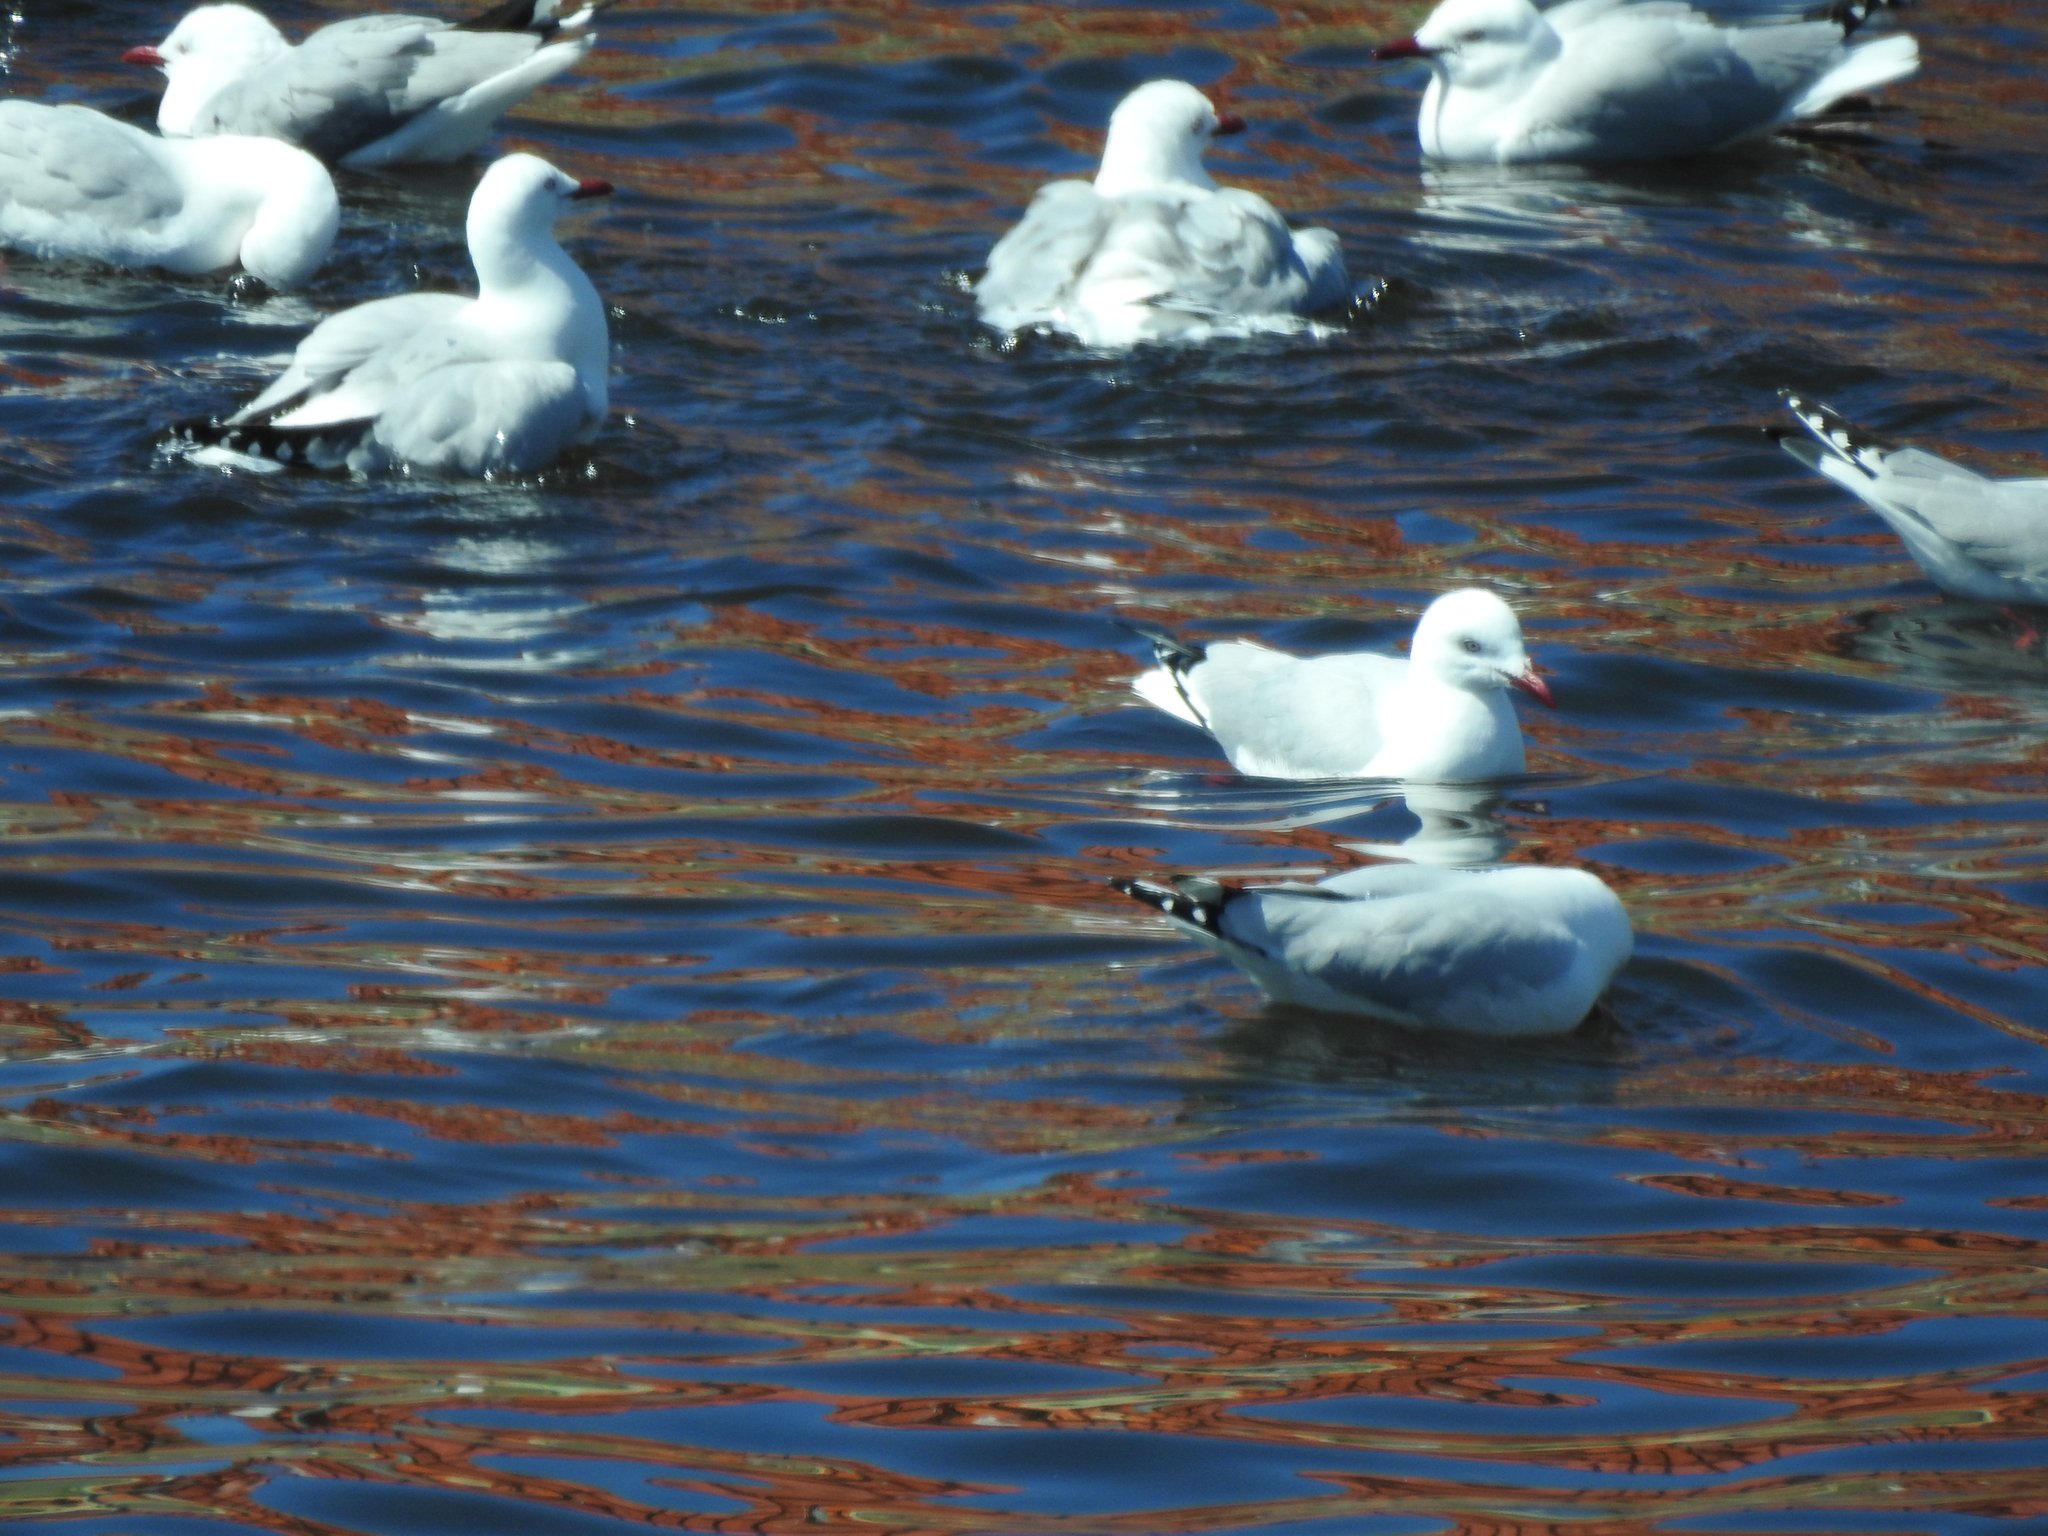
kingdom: Animalia
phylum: Chordata
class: Aves
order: Charadriiformes
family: Laridae
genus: Chroicocephalus
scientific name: Chroicocephalus novaehollandiae
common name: Silver gull
